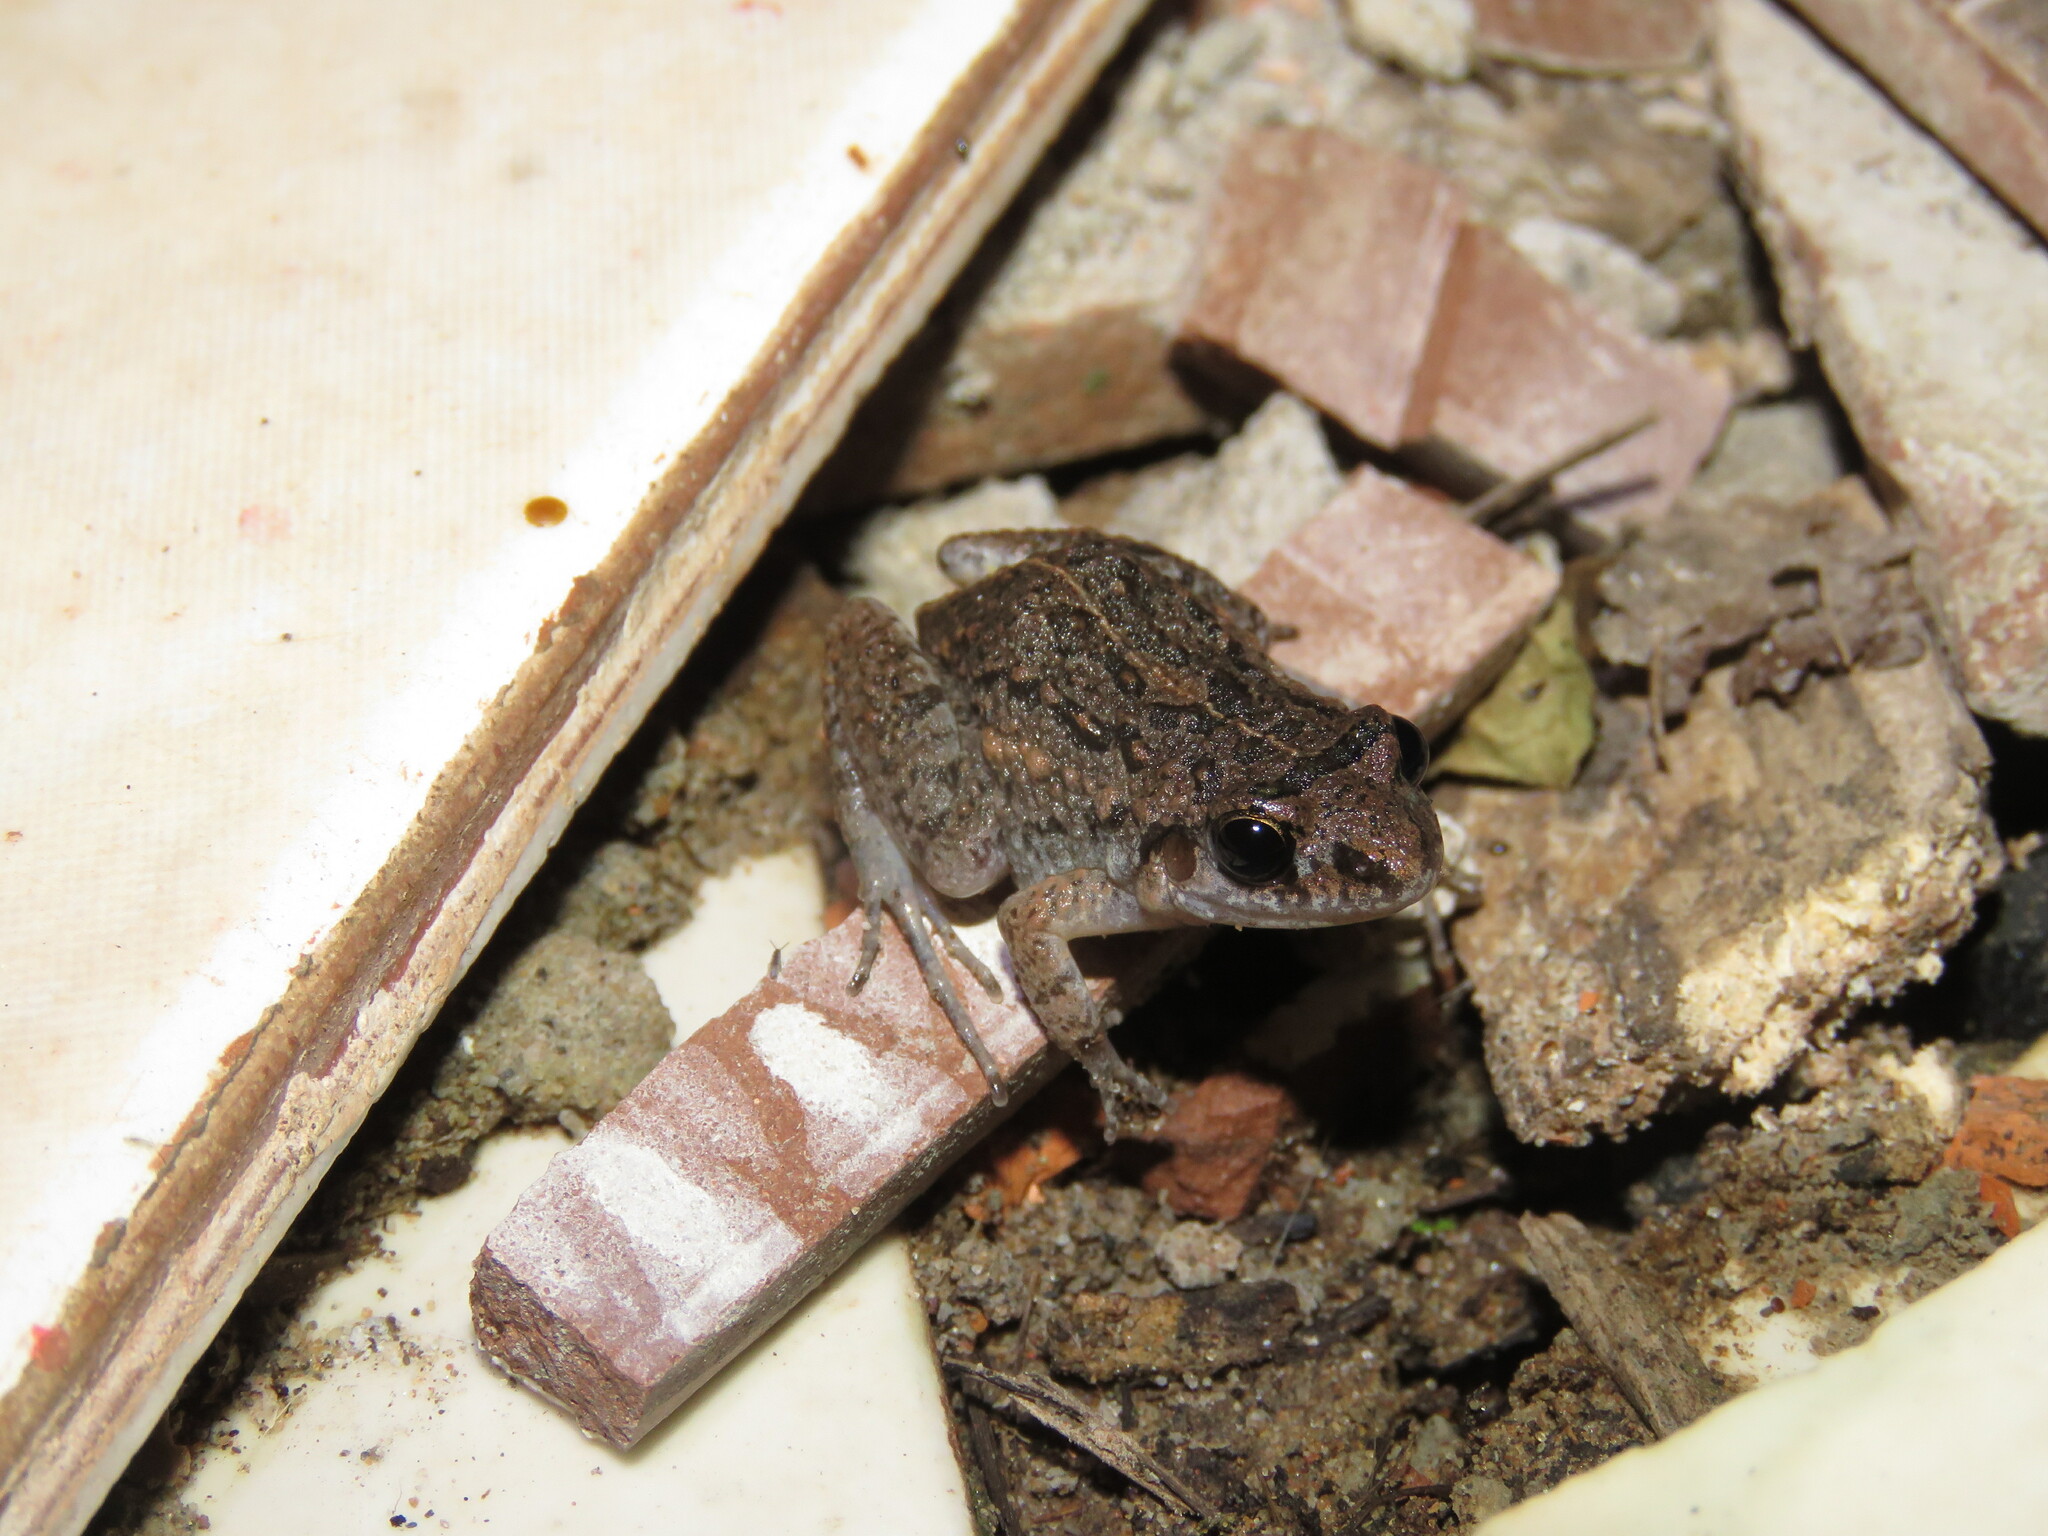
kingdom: Animalia
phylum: Chordata
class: Amphibia
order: Anura
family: Leptodactylidae
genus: Adenomera
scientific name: Adenomera hylaedactyla
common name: Napo tropical bullfrog
